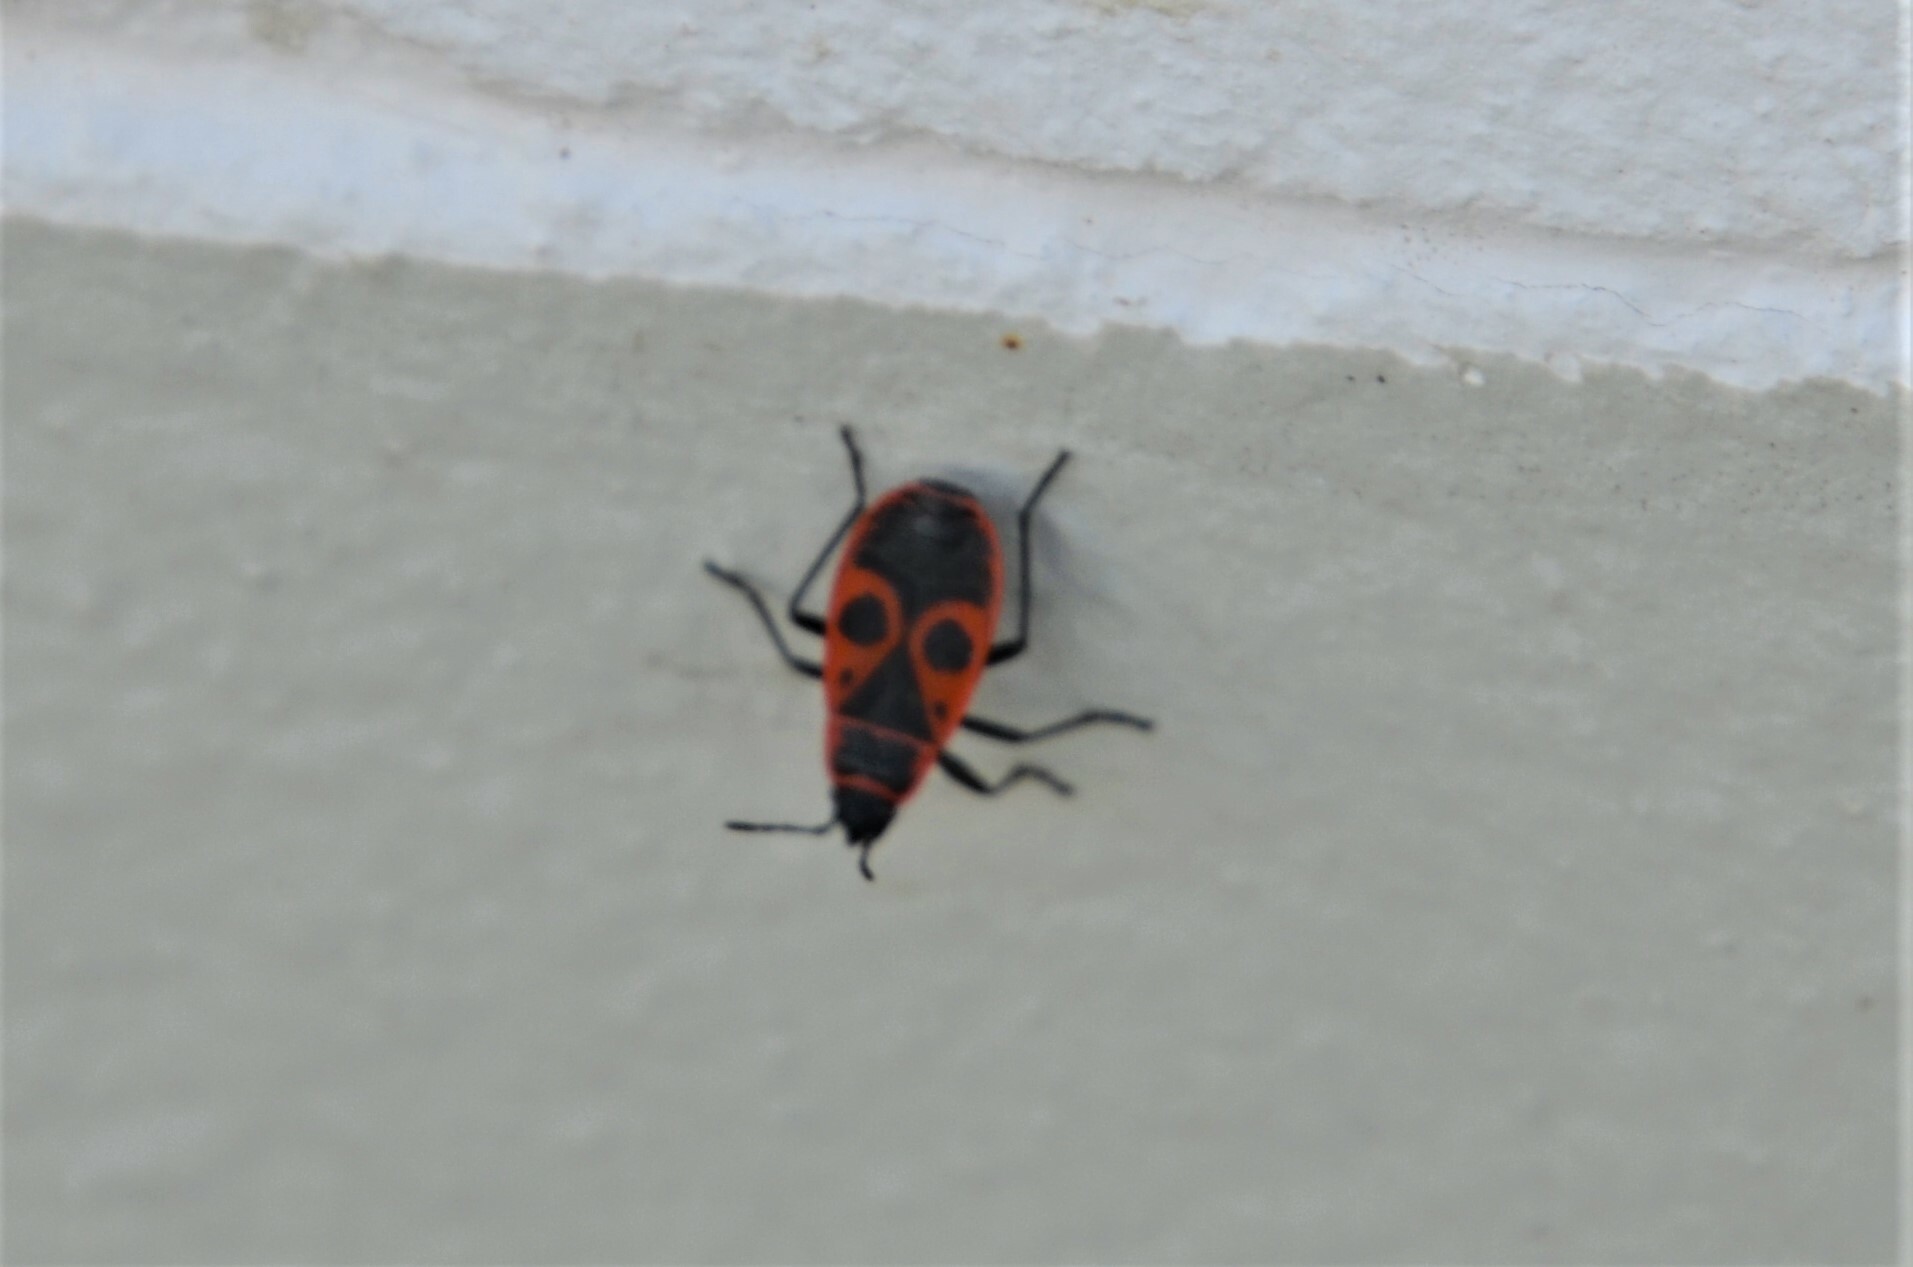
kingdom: Animalia
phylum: Arthropoda
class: Insecta
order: Hemiptera
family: Pyrrhocoridae
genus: Pyrrhocoris
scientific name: Pyrrhocoris apterus
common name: Firebug
